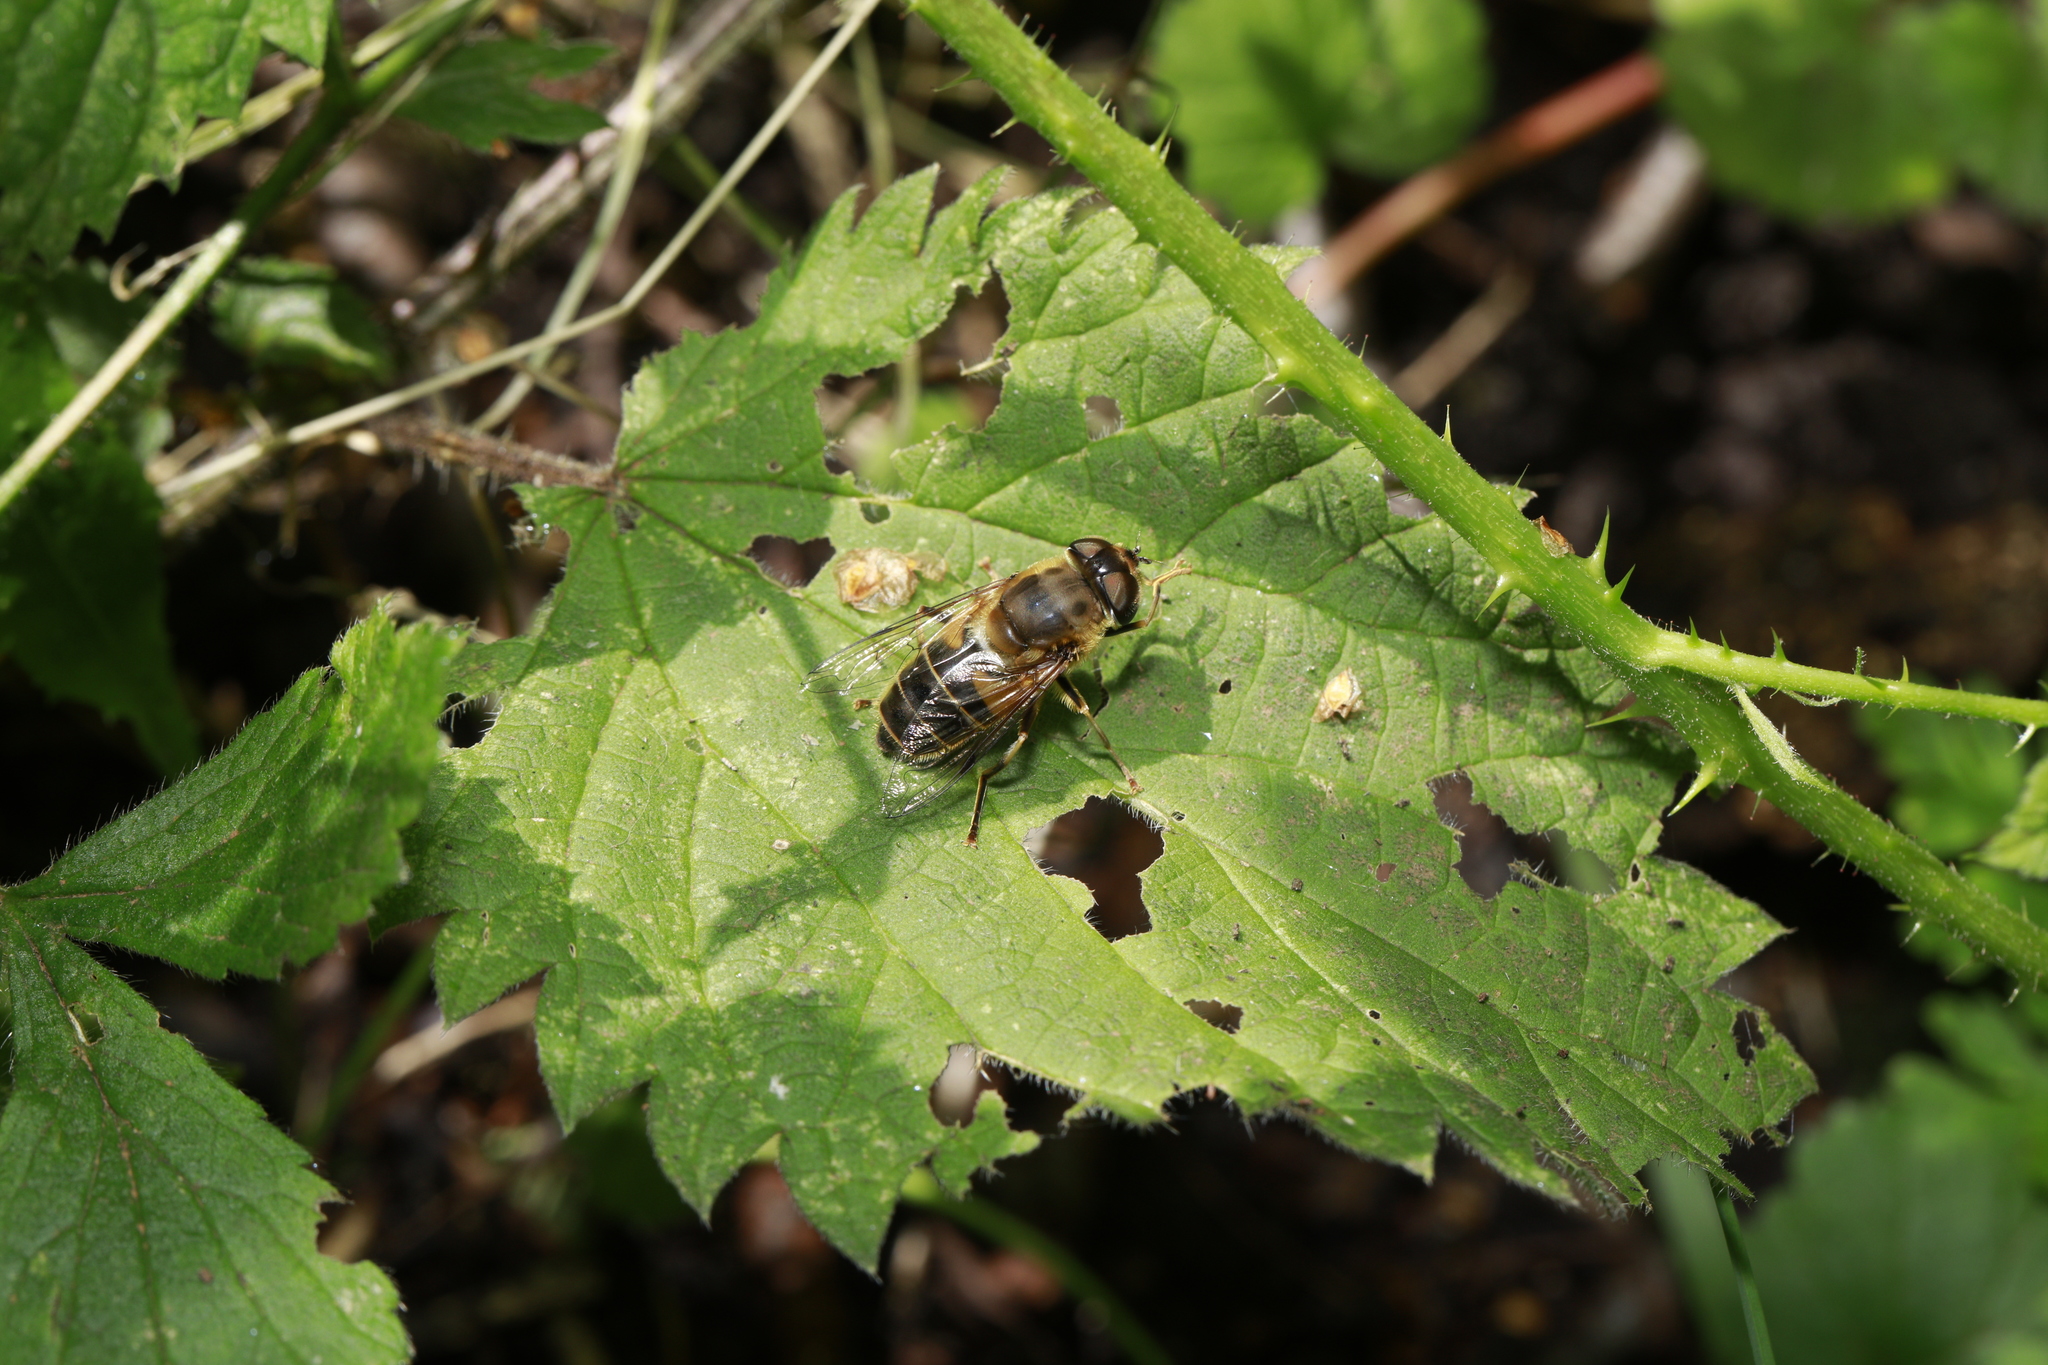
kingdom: Animalia
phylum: Arthropoda
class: Insecta
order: Diptera
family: Syrphidae
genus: Eristalis
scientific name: Eristalis pertinax
